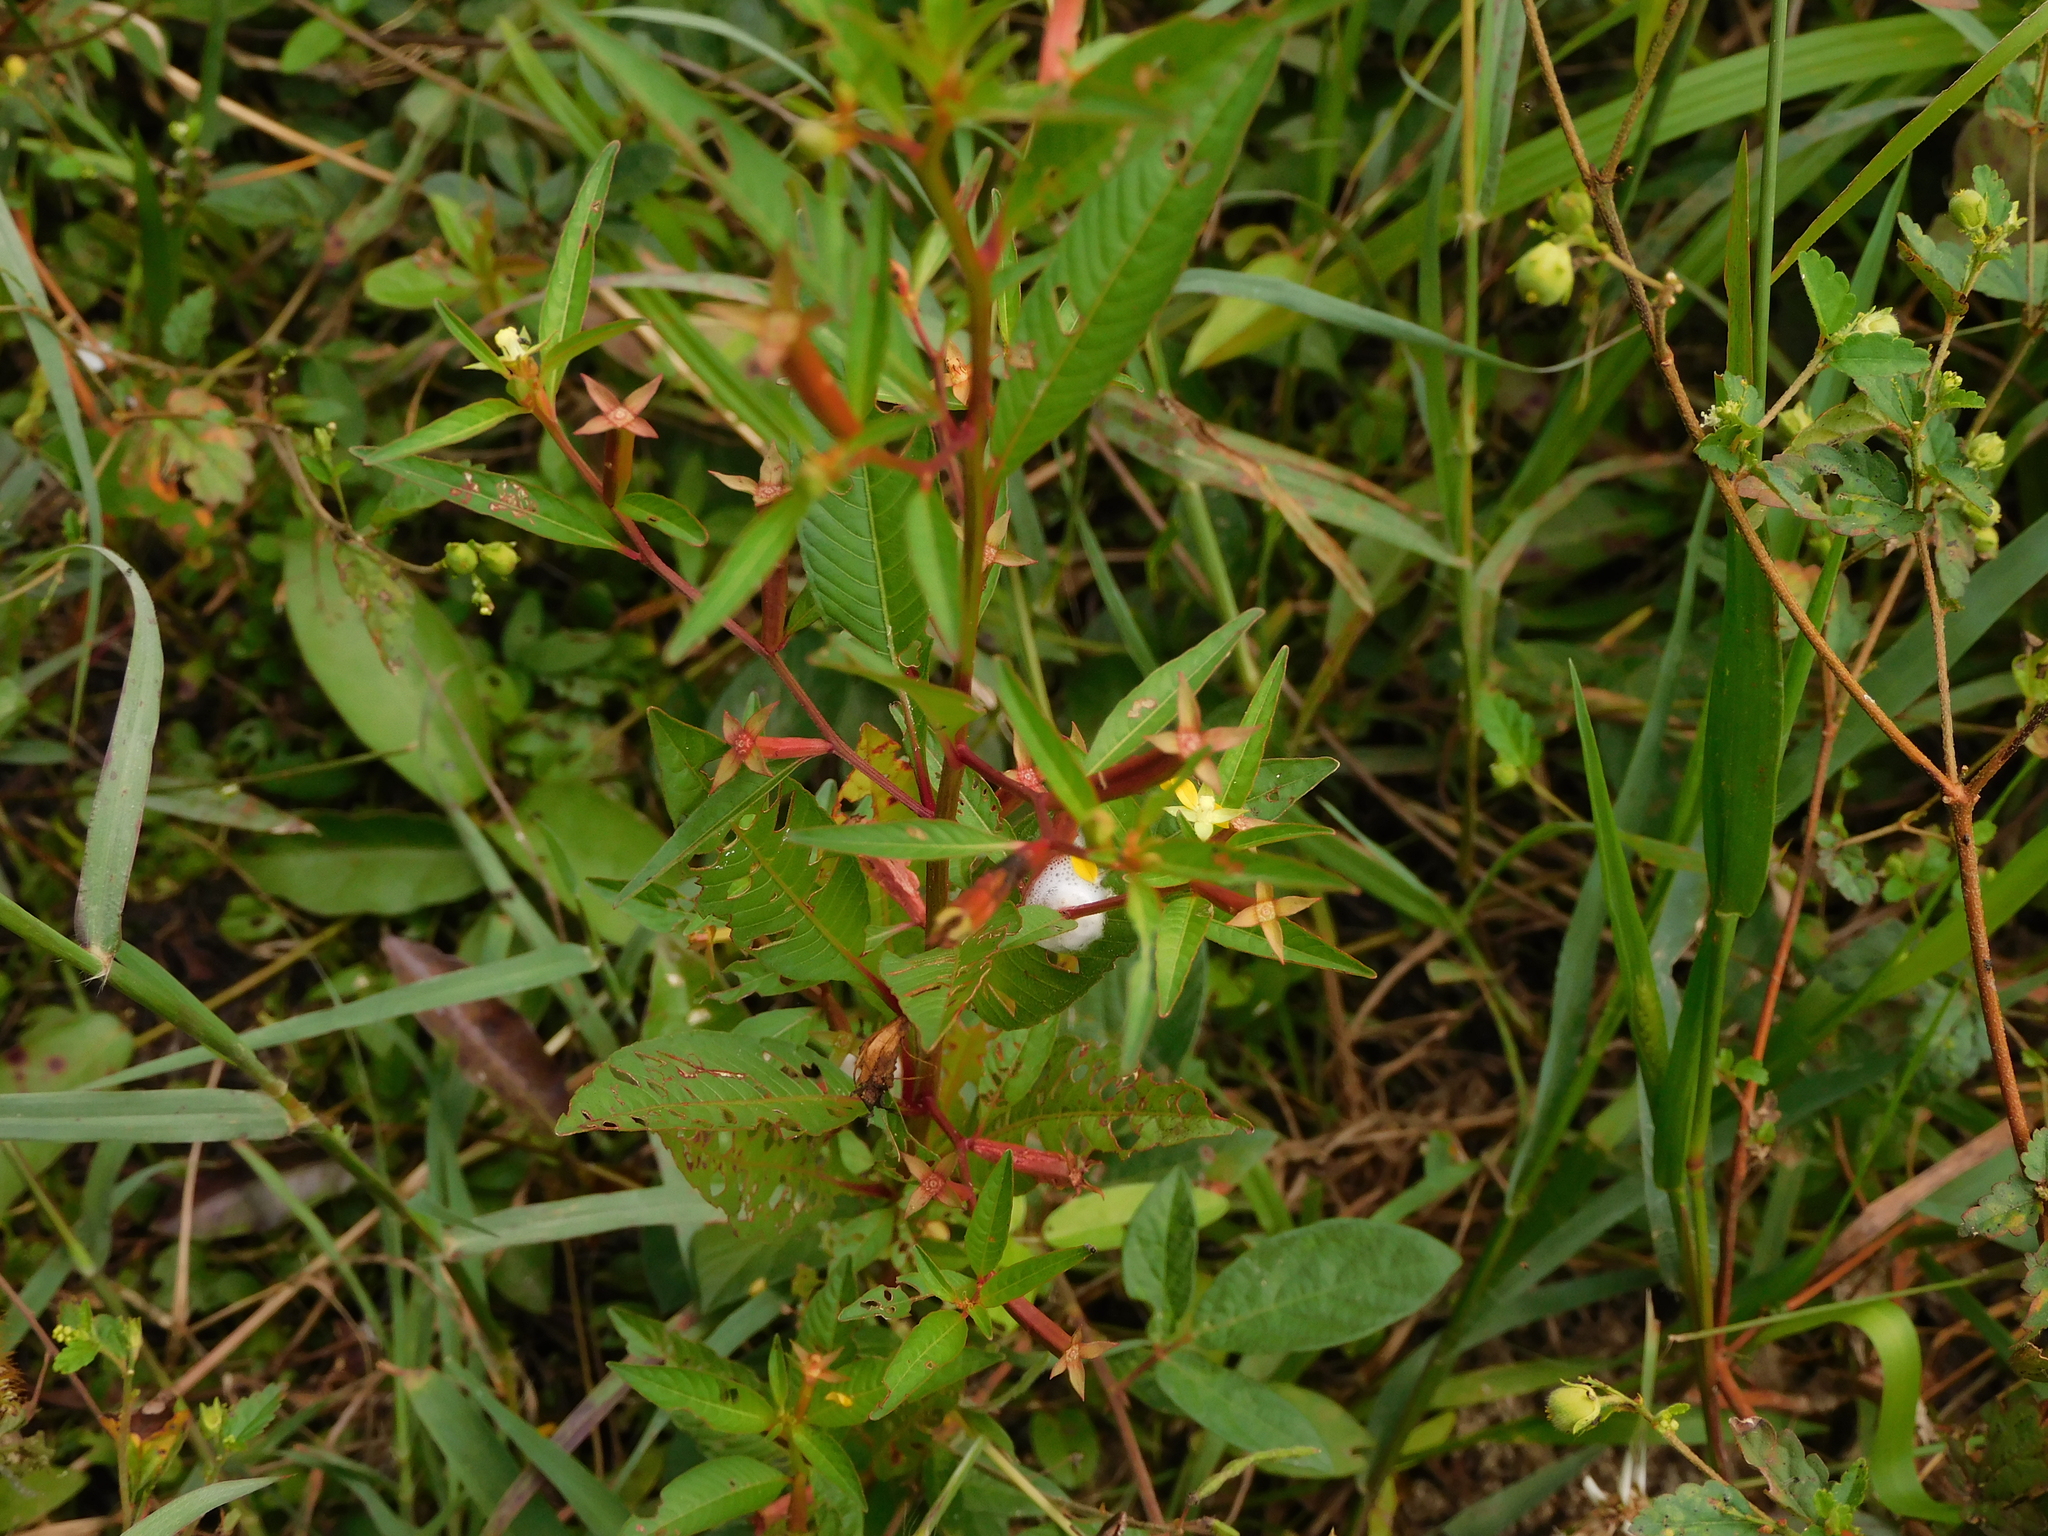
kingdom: Plantae
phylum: Tracheophyta
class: Magnoliopsida
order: Myrtales
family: Onagraceae
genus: Ludwigia
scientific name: Ludwigia erecta
